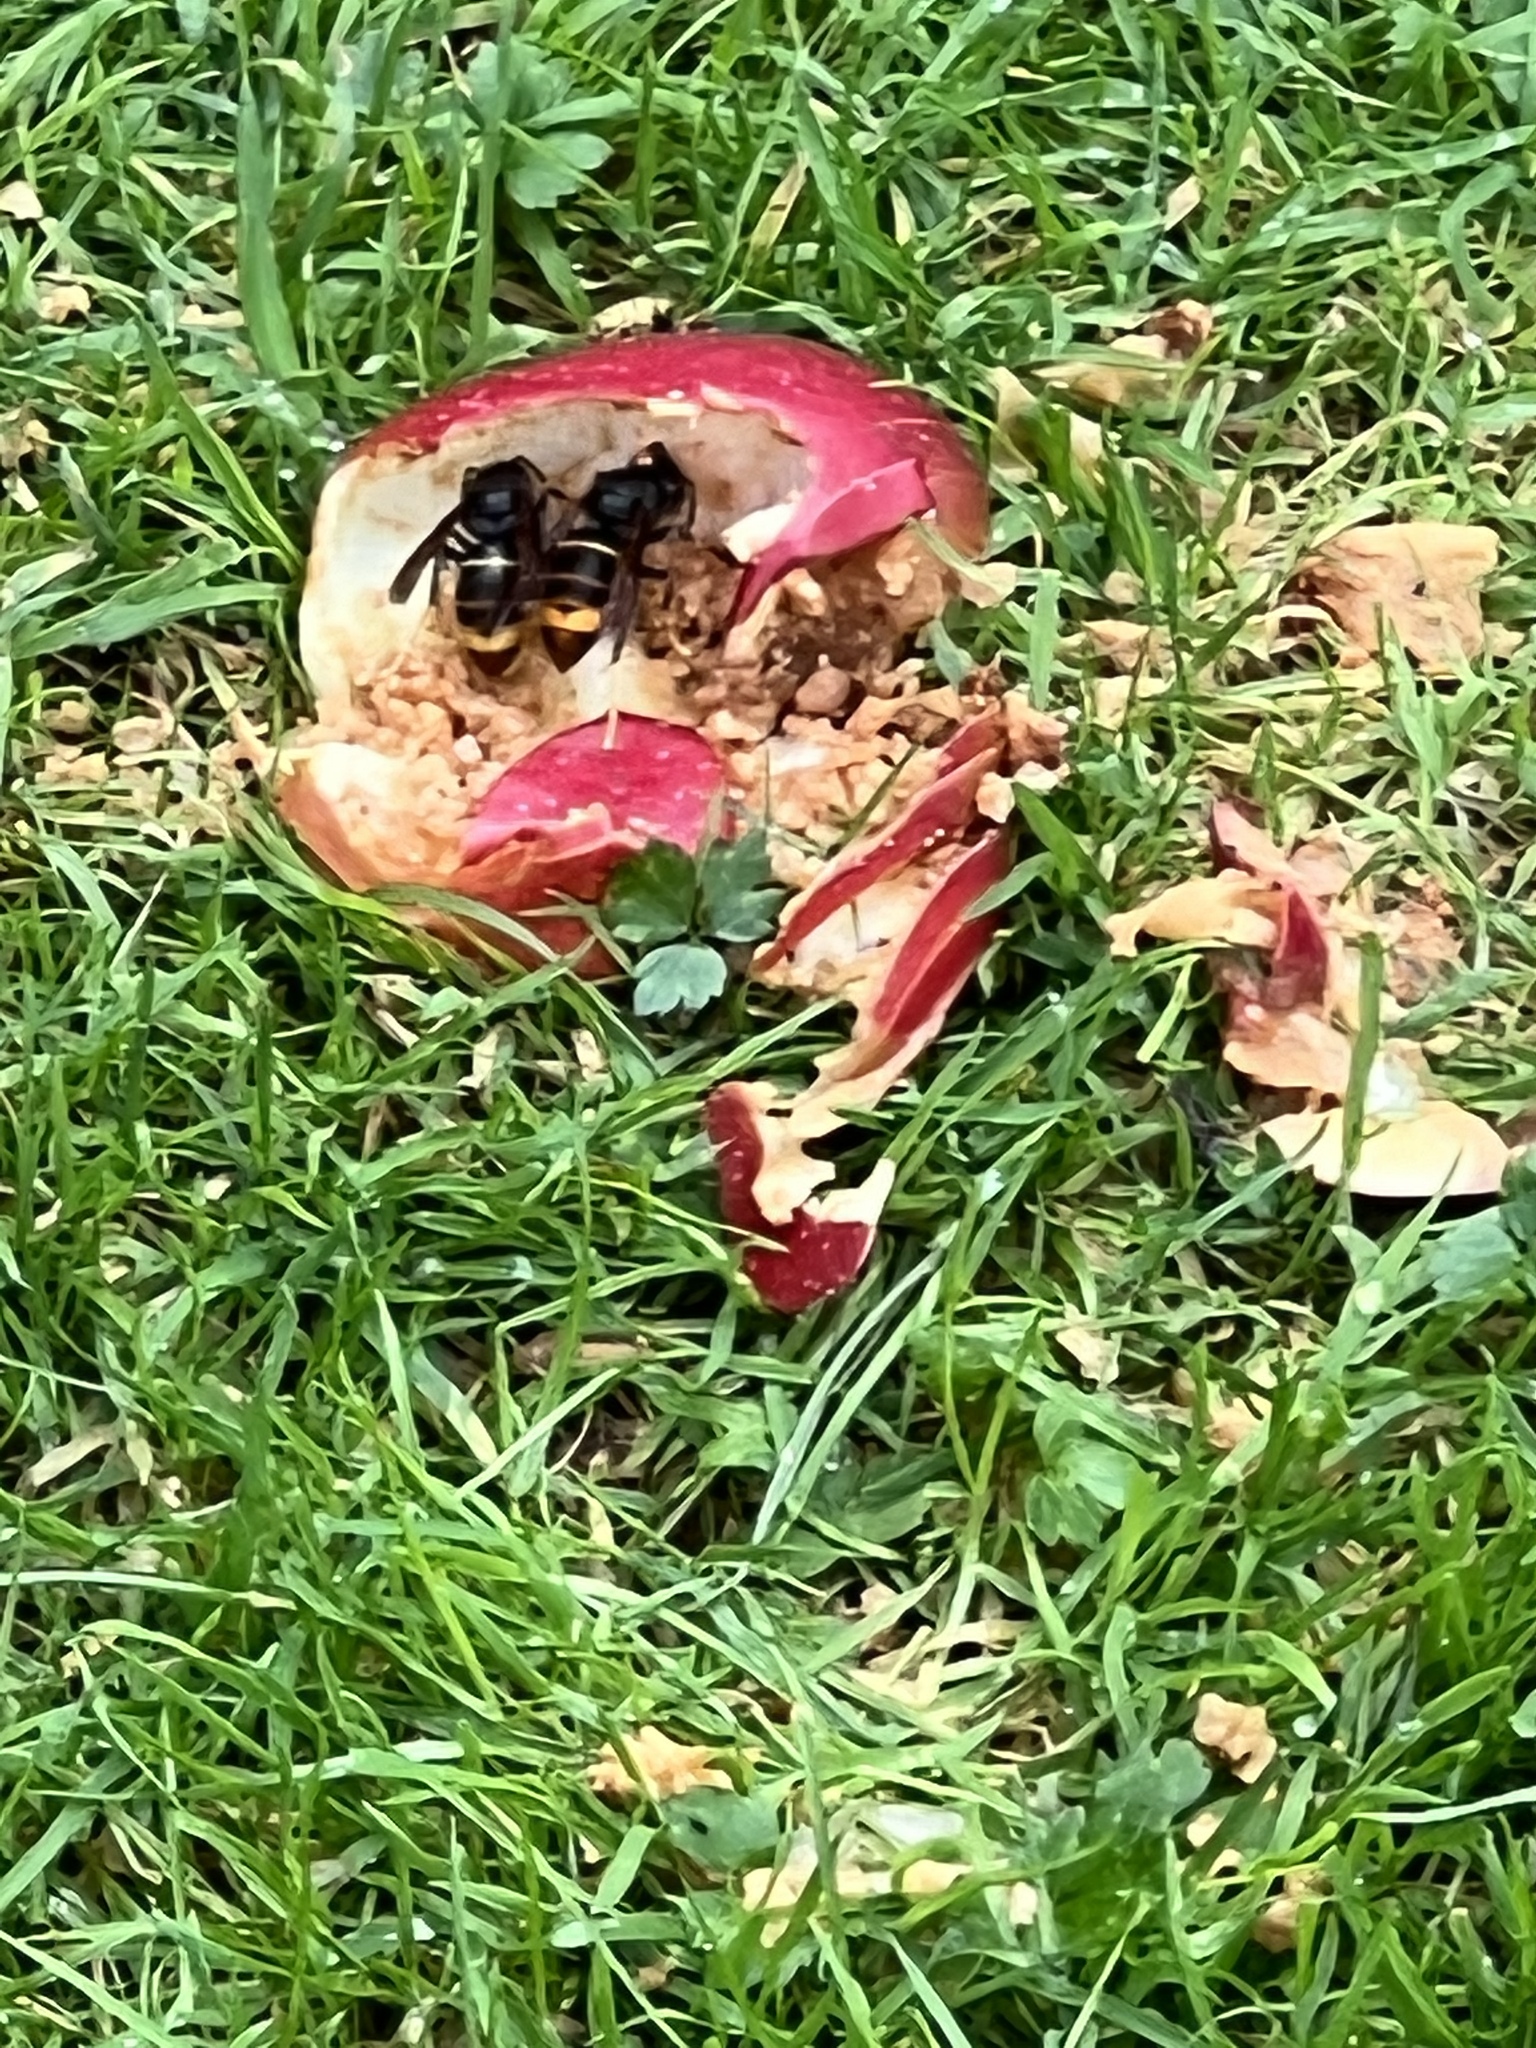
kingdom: Animalia
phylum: Arthropoda
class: Insecta
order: Hymenoptera
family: Vespidae
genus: Vespa
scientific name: Vespa velutina
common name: Asian hornet
